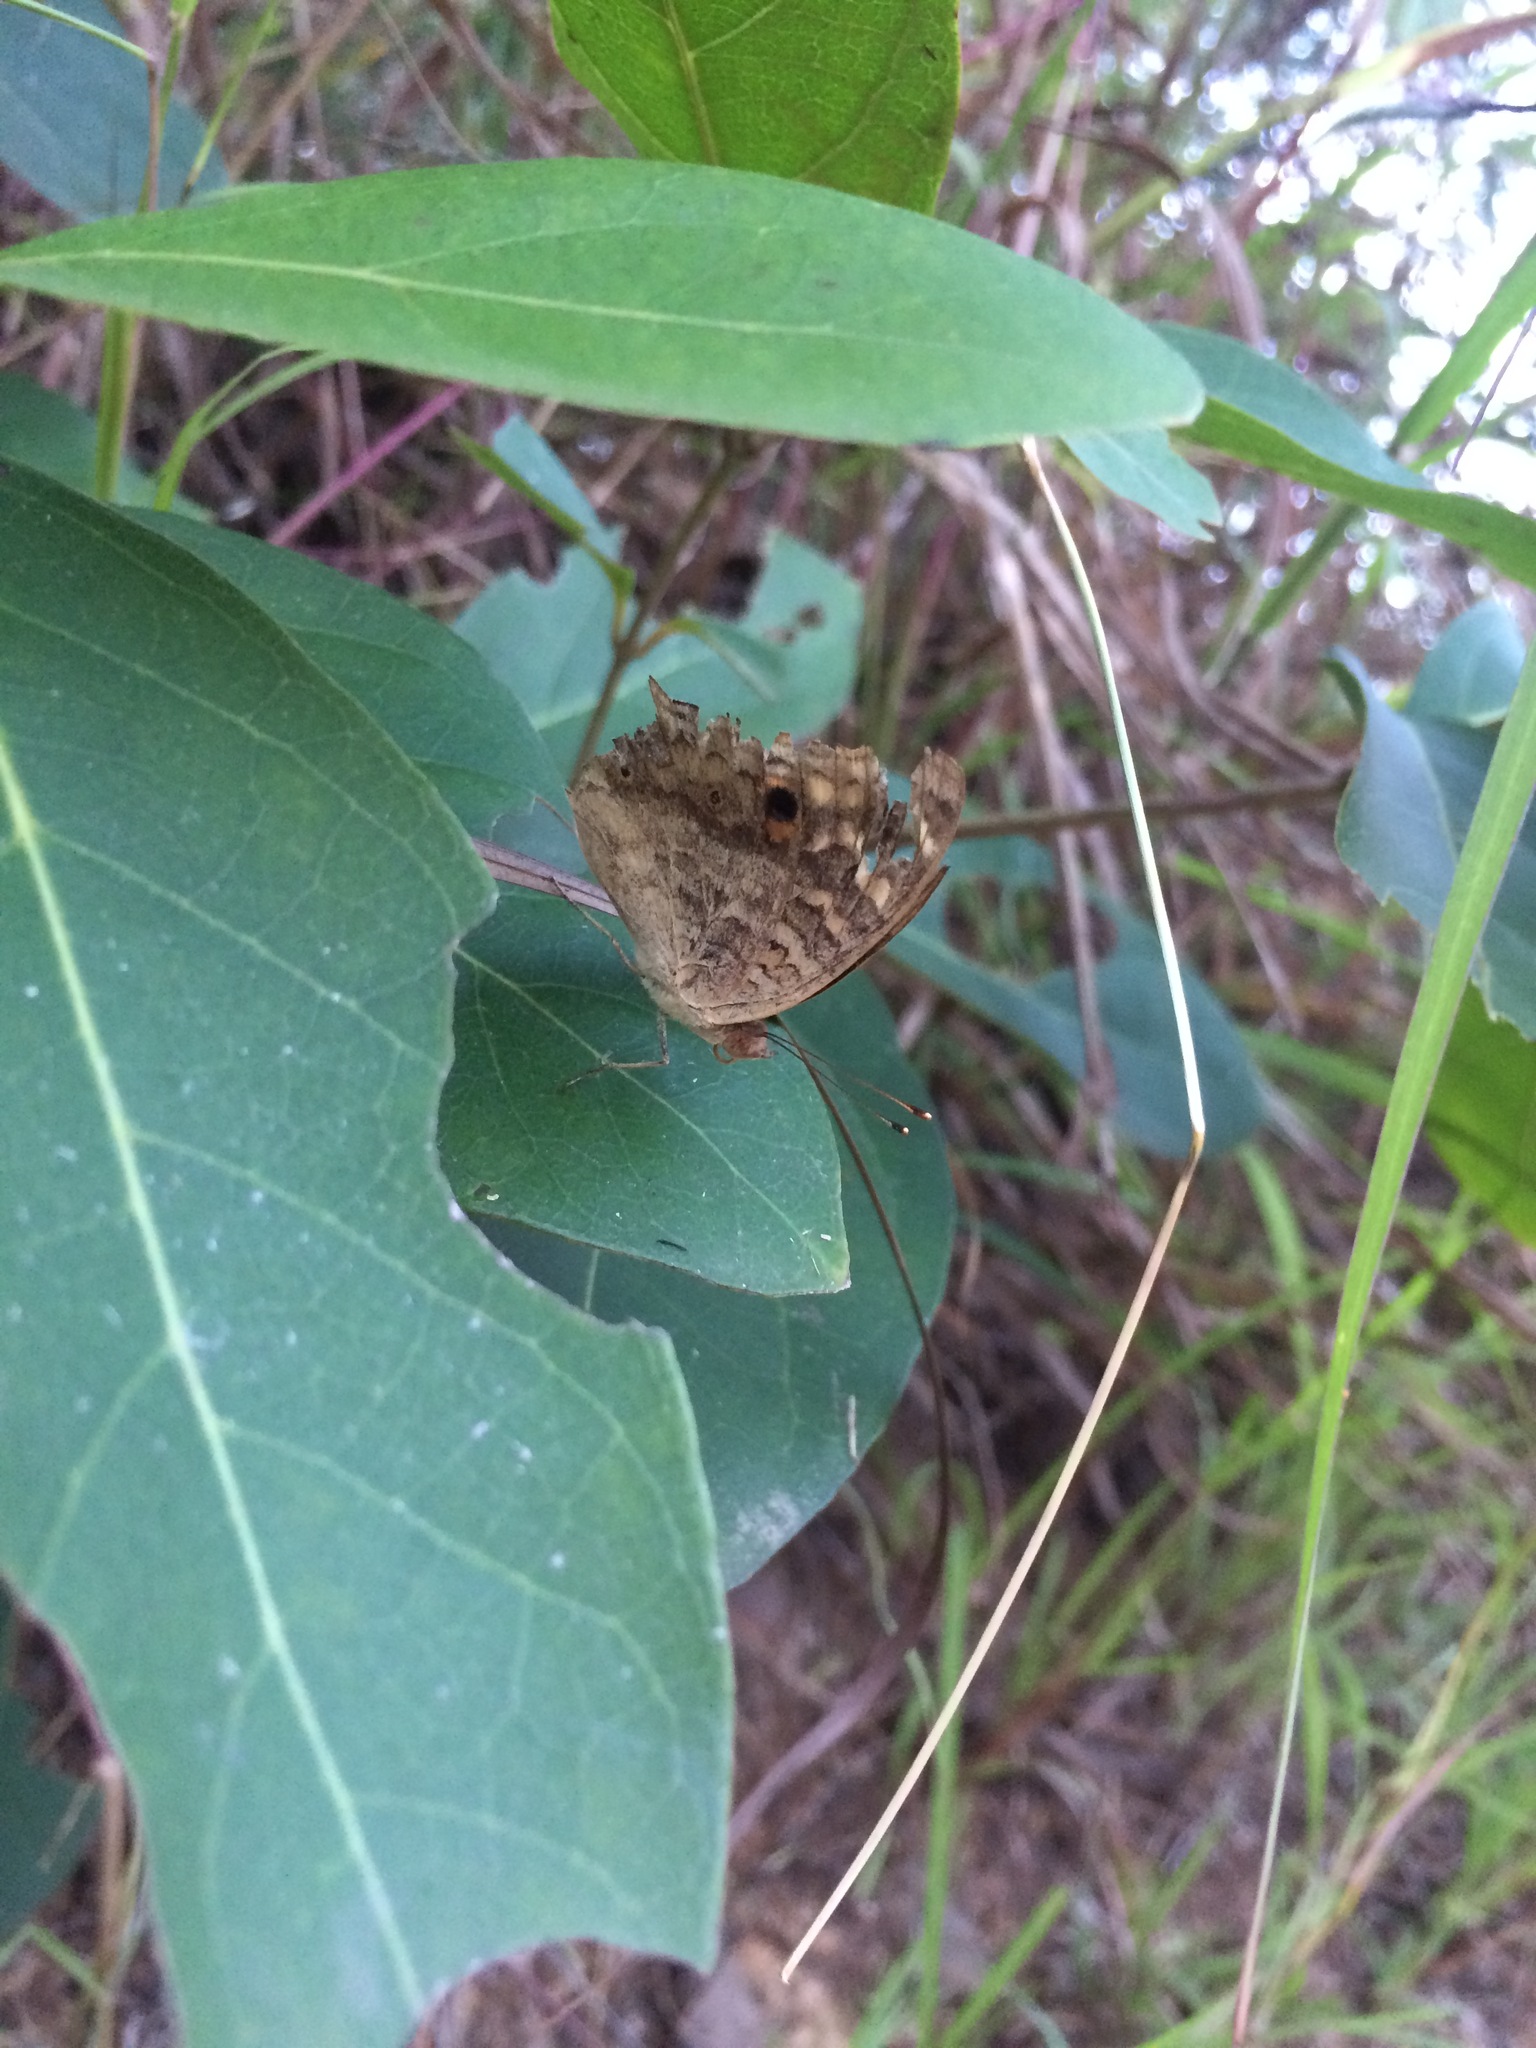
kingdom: Animalia
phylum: Arthropoda
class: Insecta
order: Lepidoptera
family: Nymphalidae
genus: Junonia
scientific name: Junonia lemonias
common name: Lemon pansy
